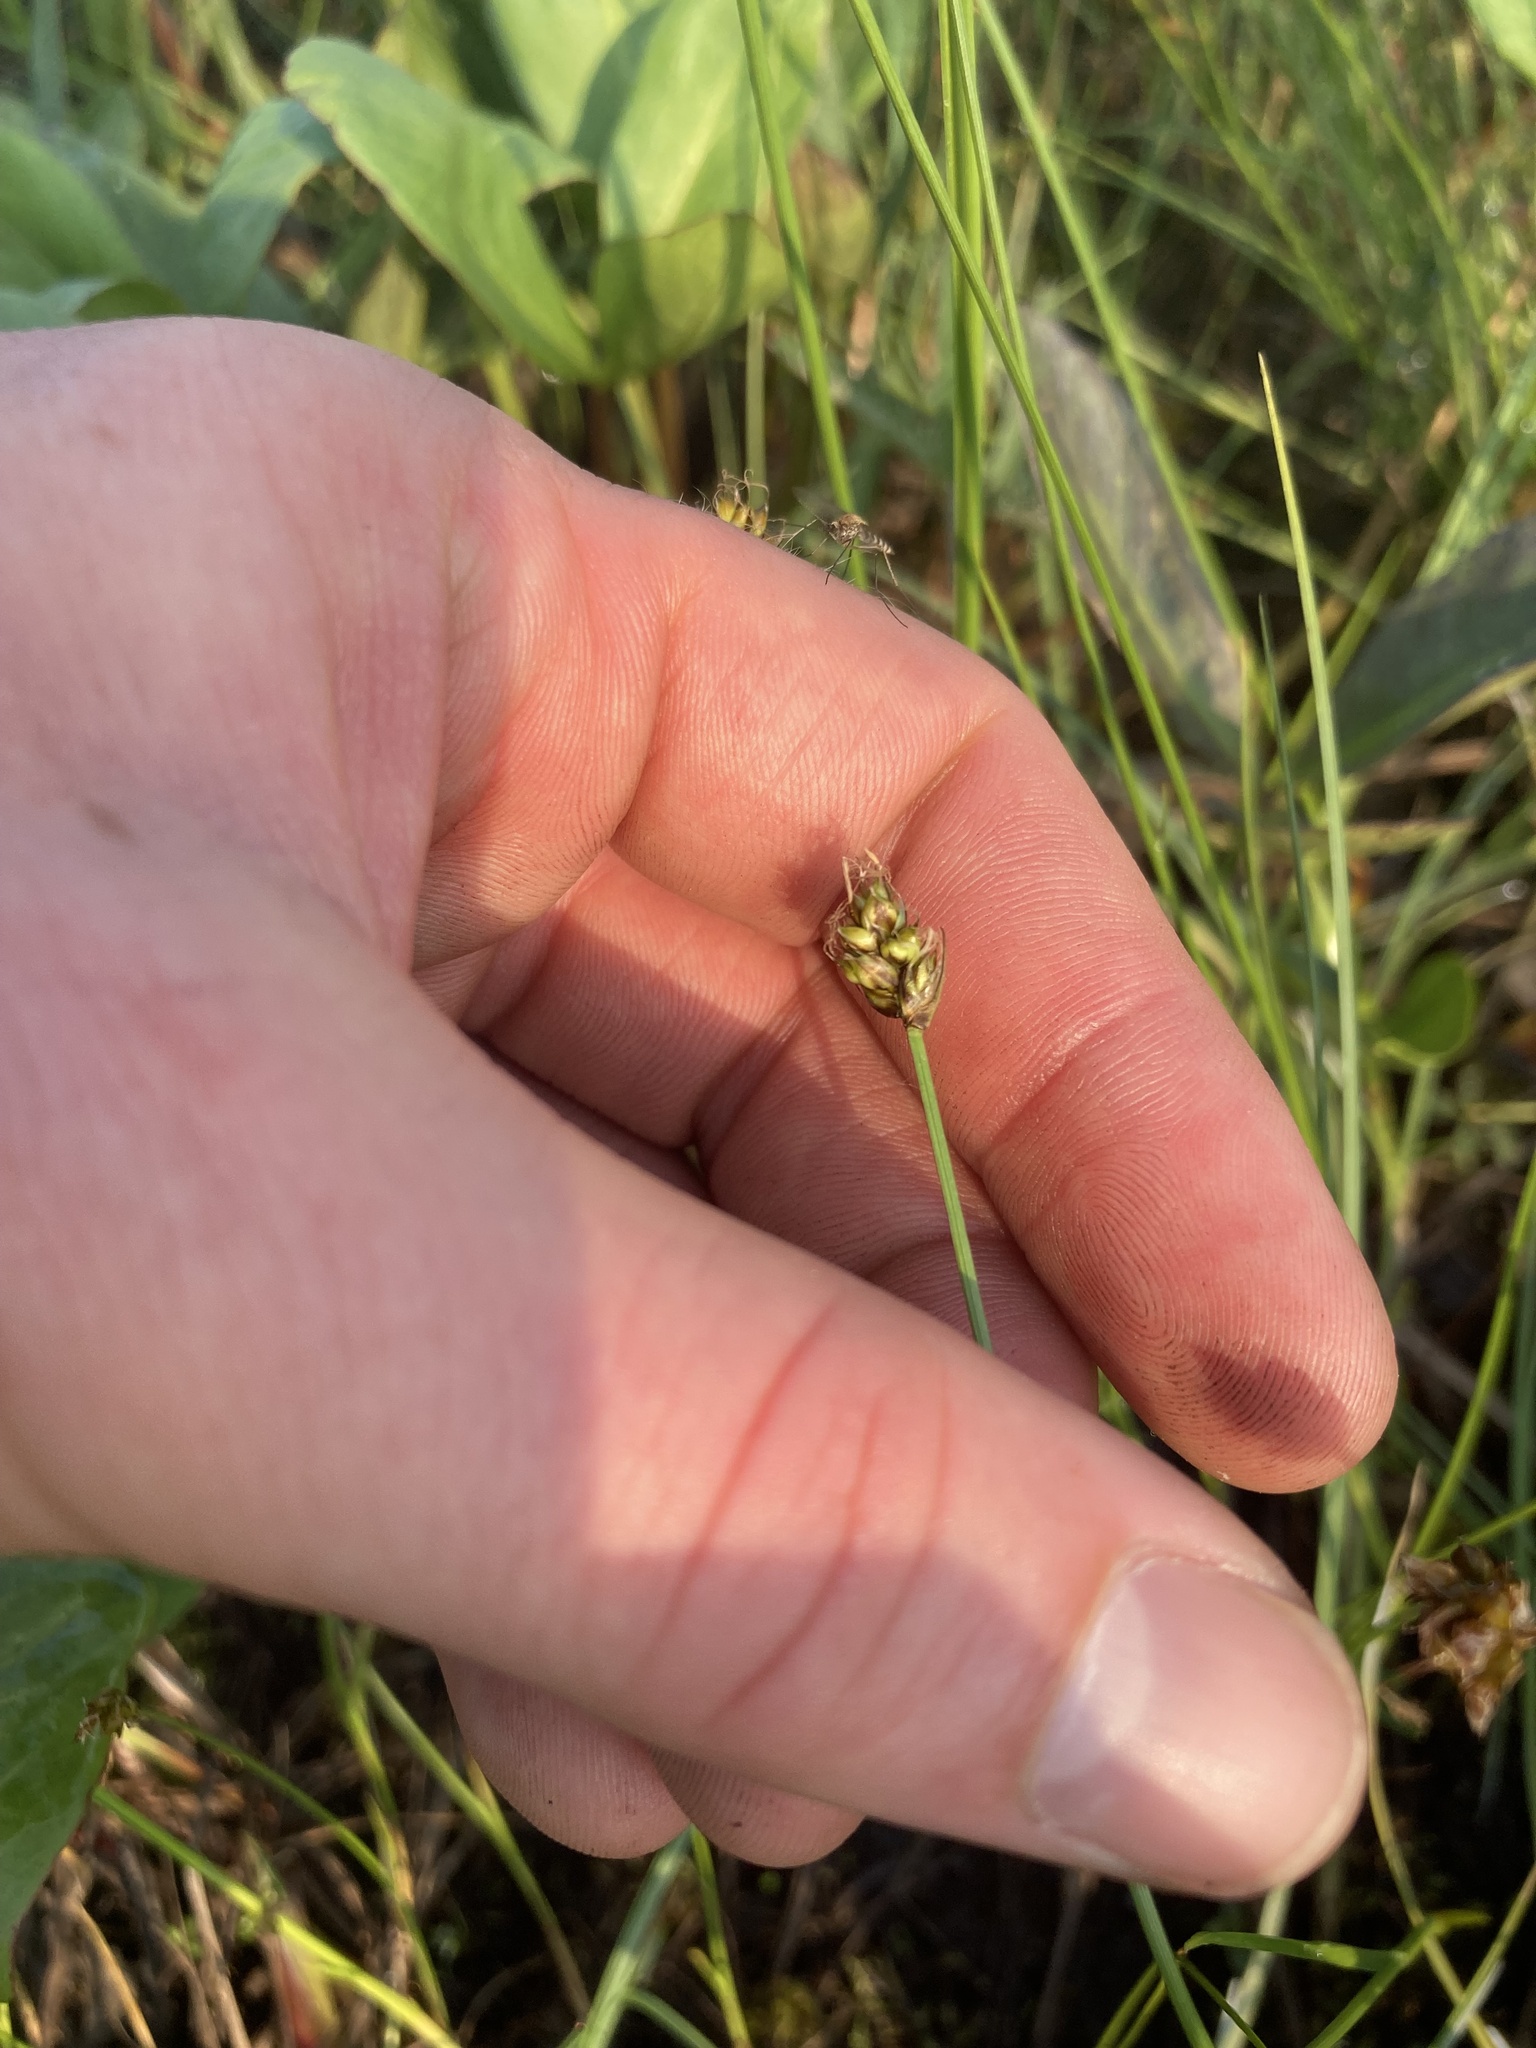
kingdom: Plantae
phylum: Tracheophyta
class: Liliopsida
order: Poales
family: Cyperaceae
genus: Carex
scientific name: Carex chordorrhiza
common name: String sedge
